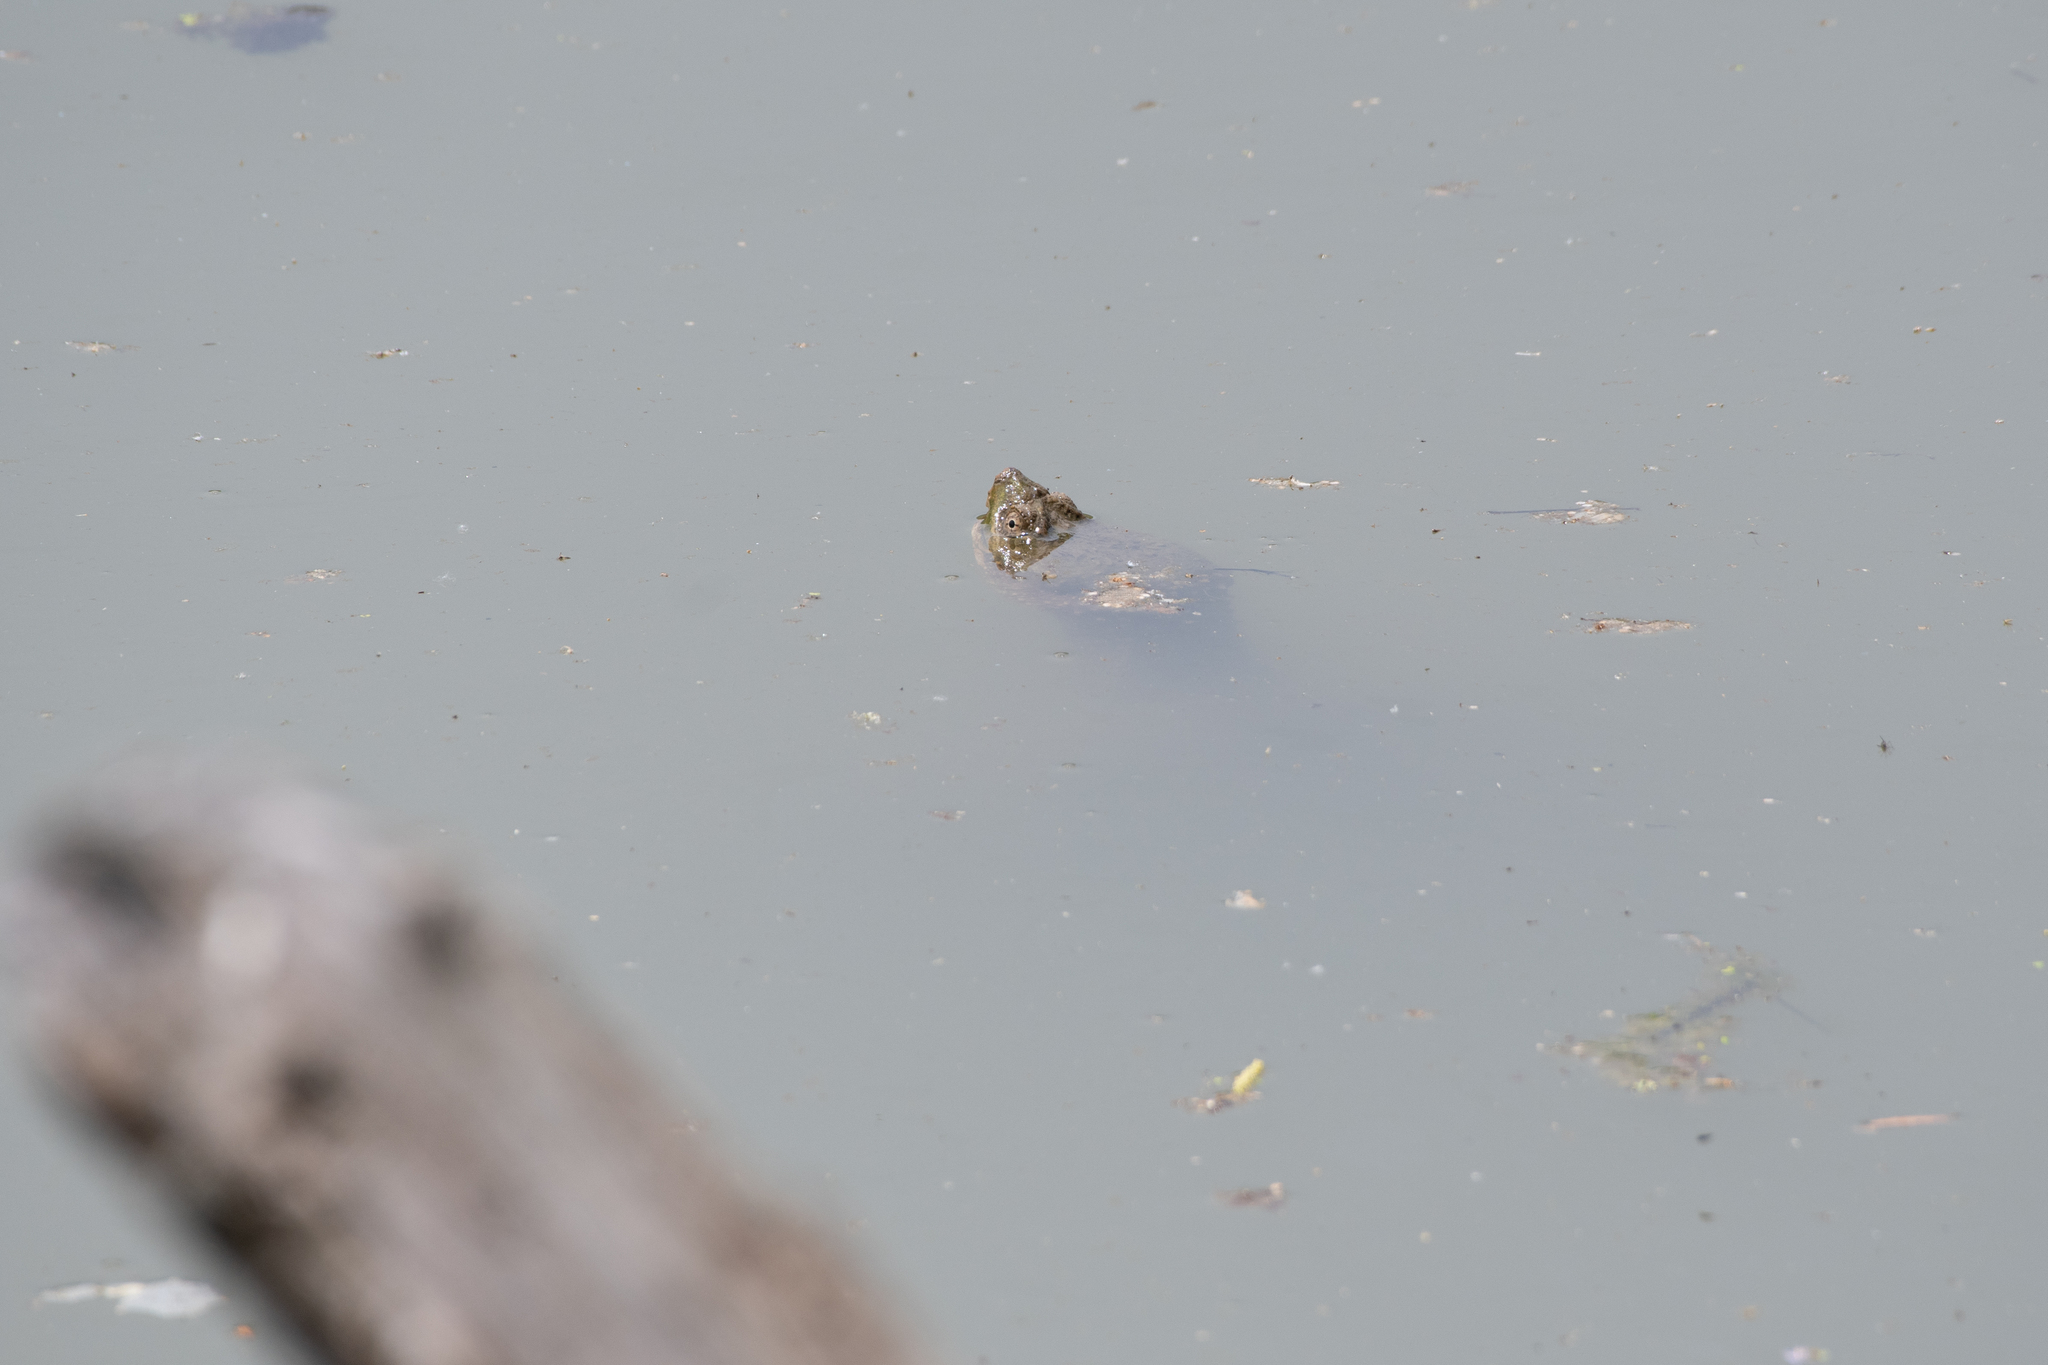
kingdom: Animalia
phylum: Chordata
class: Testudines
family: Chelydridae
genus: Chelydra
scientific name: Chelydra serpentina
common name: Common snapping turtle
